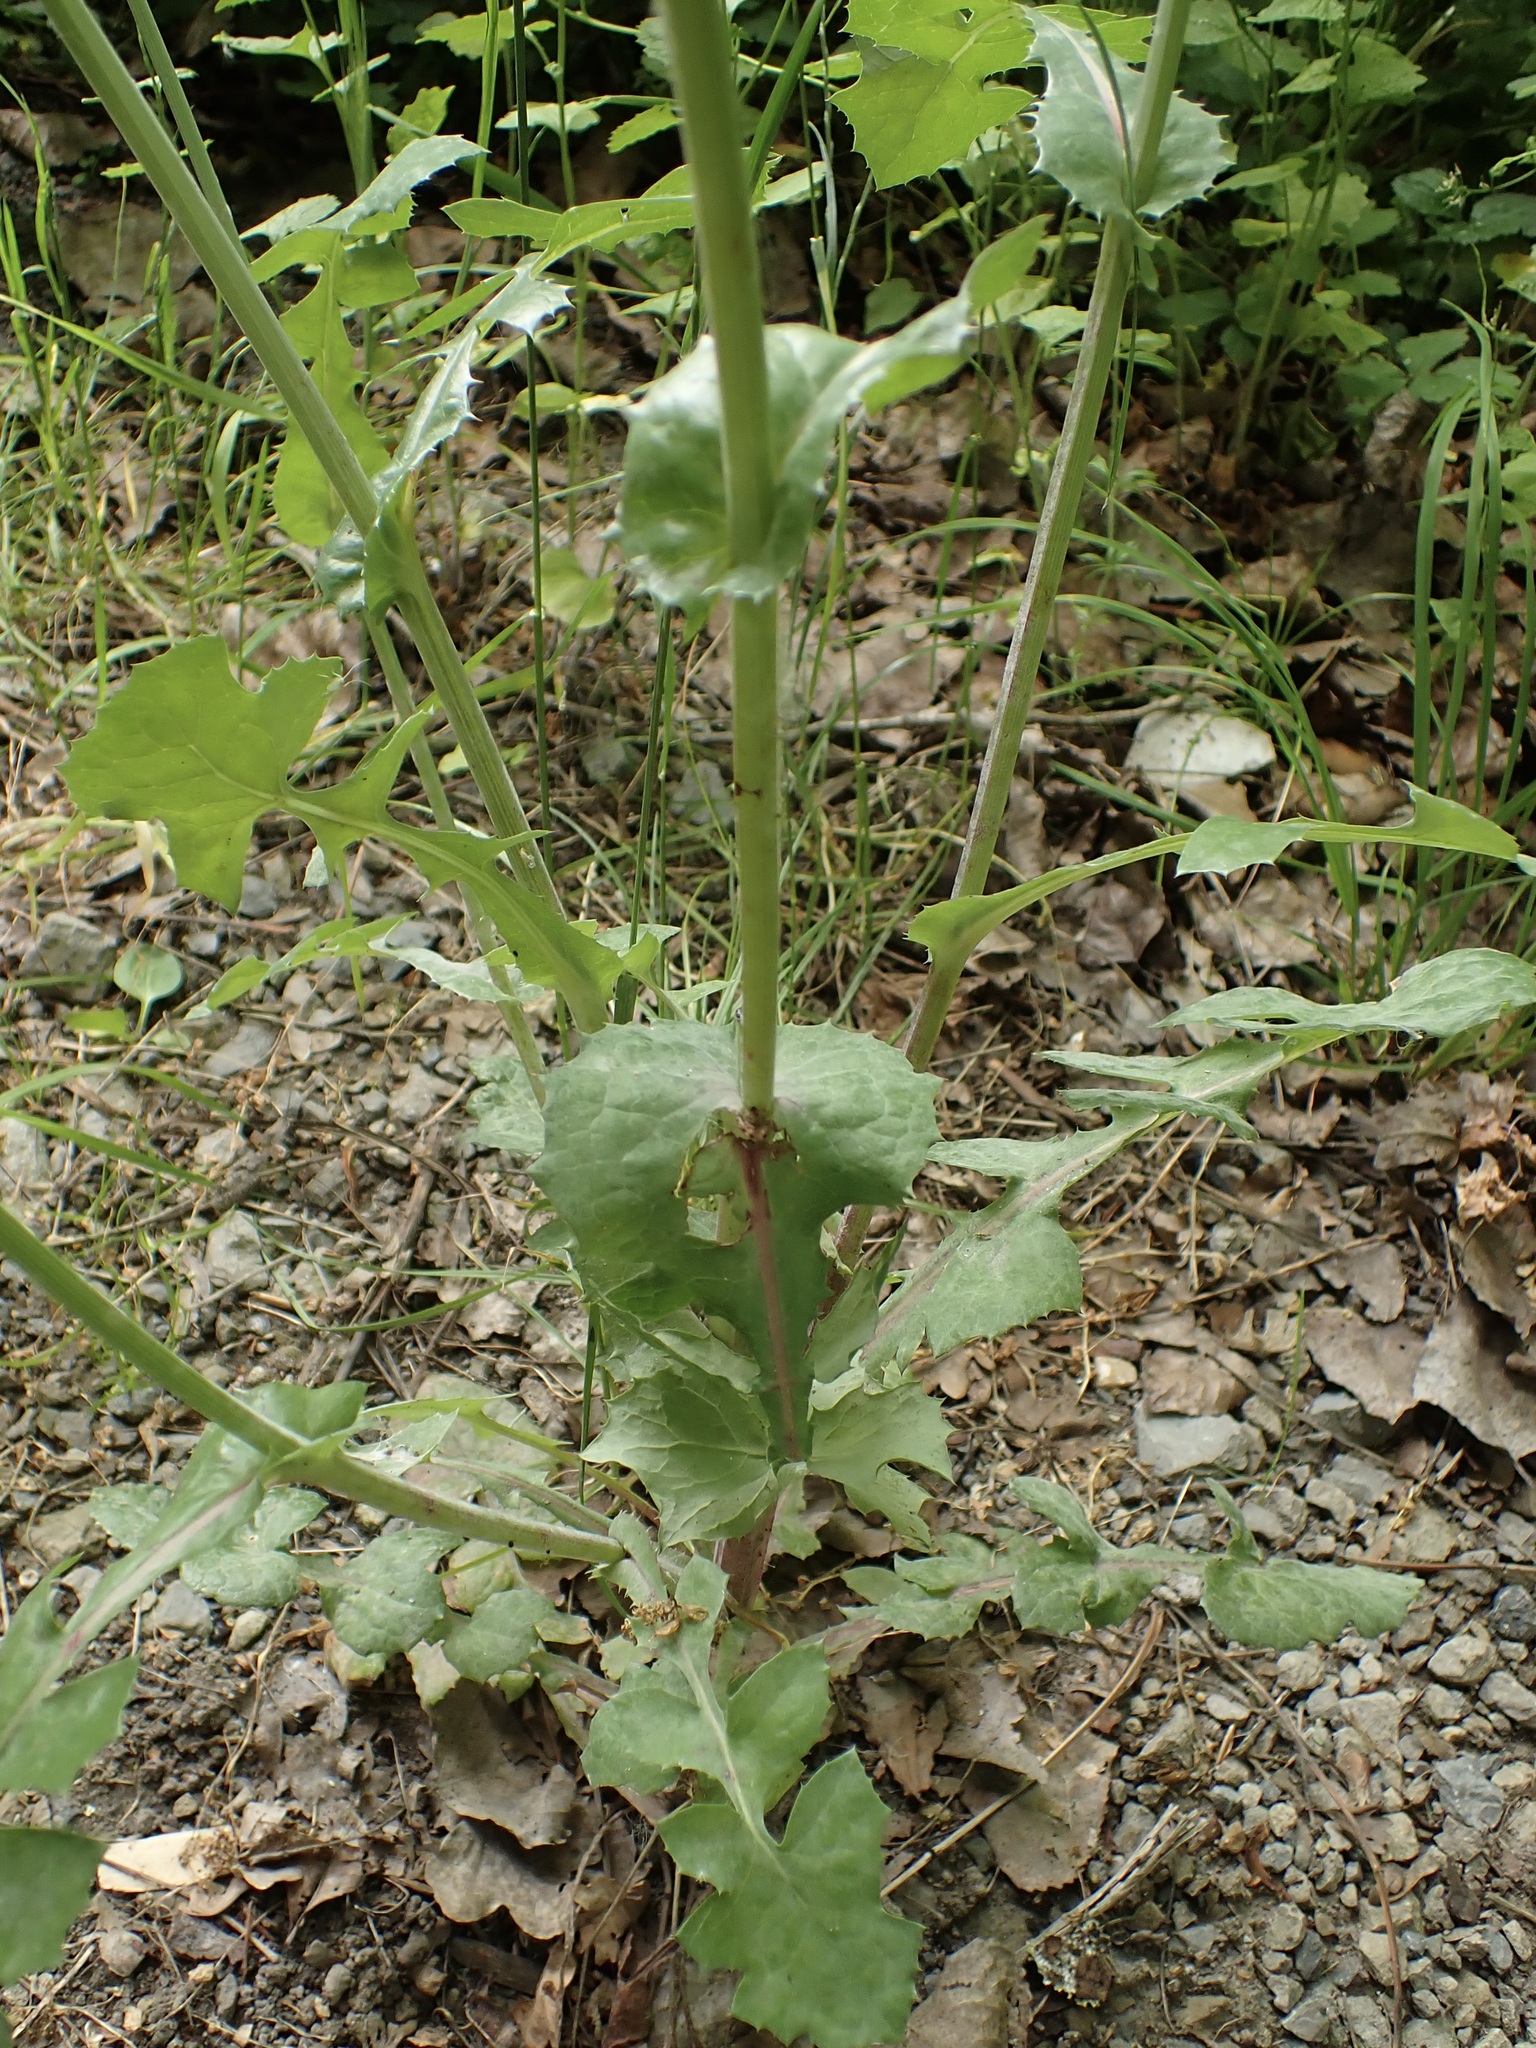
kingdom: Plantae
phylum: Tracheophyta
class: Magnoliopsida
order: Asterales
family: Asteraceae
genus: Sonchus
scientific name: Sonchus oleraceus
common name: Common sowthistle
